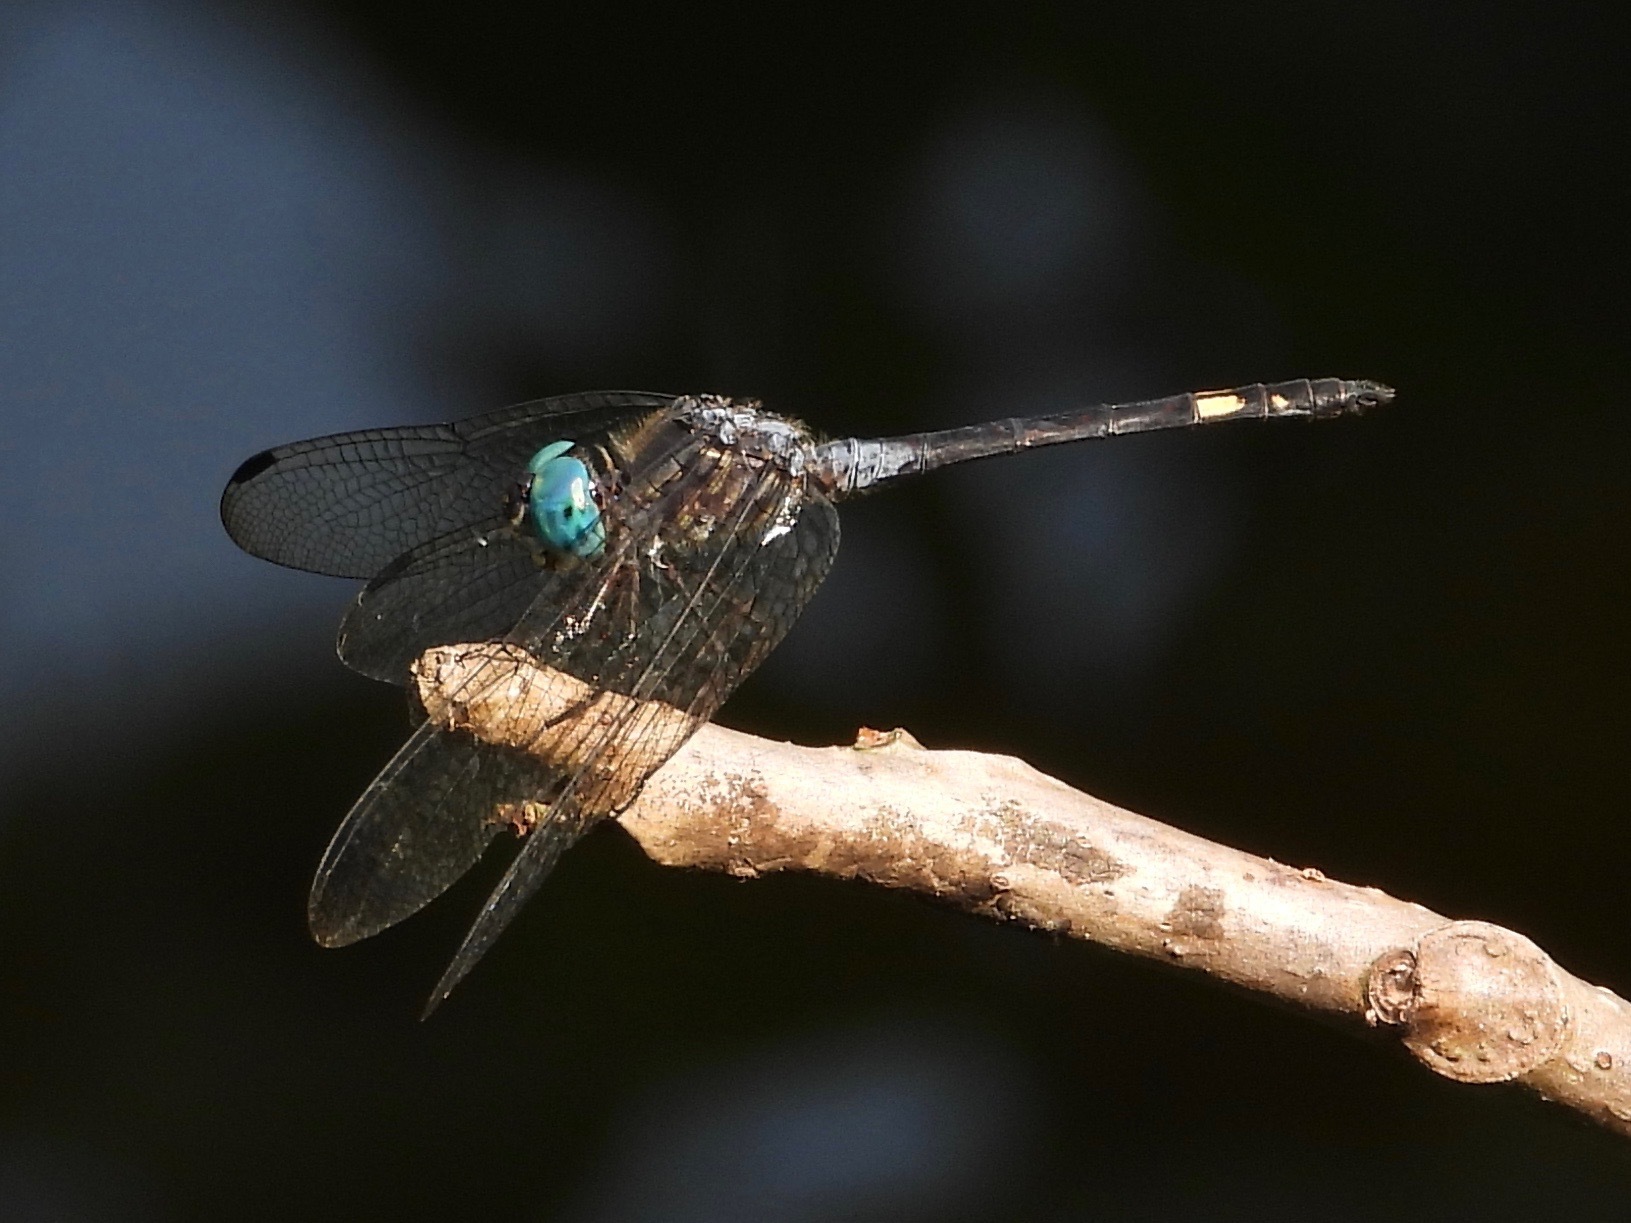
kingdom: Animalia
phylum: Arthropoda
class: Insecta
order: Odonata
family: Libellulidae
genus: Micrathyria
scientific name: Micrathyria schumanni
